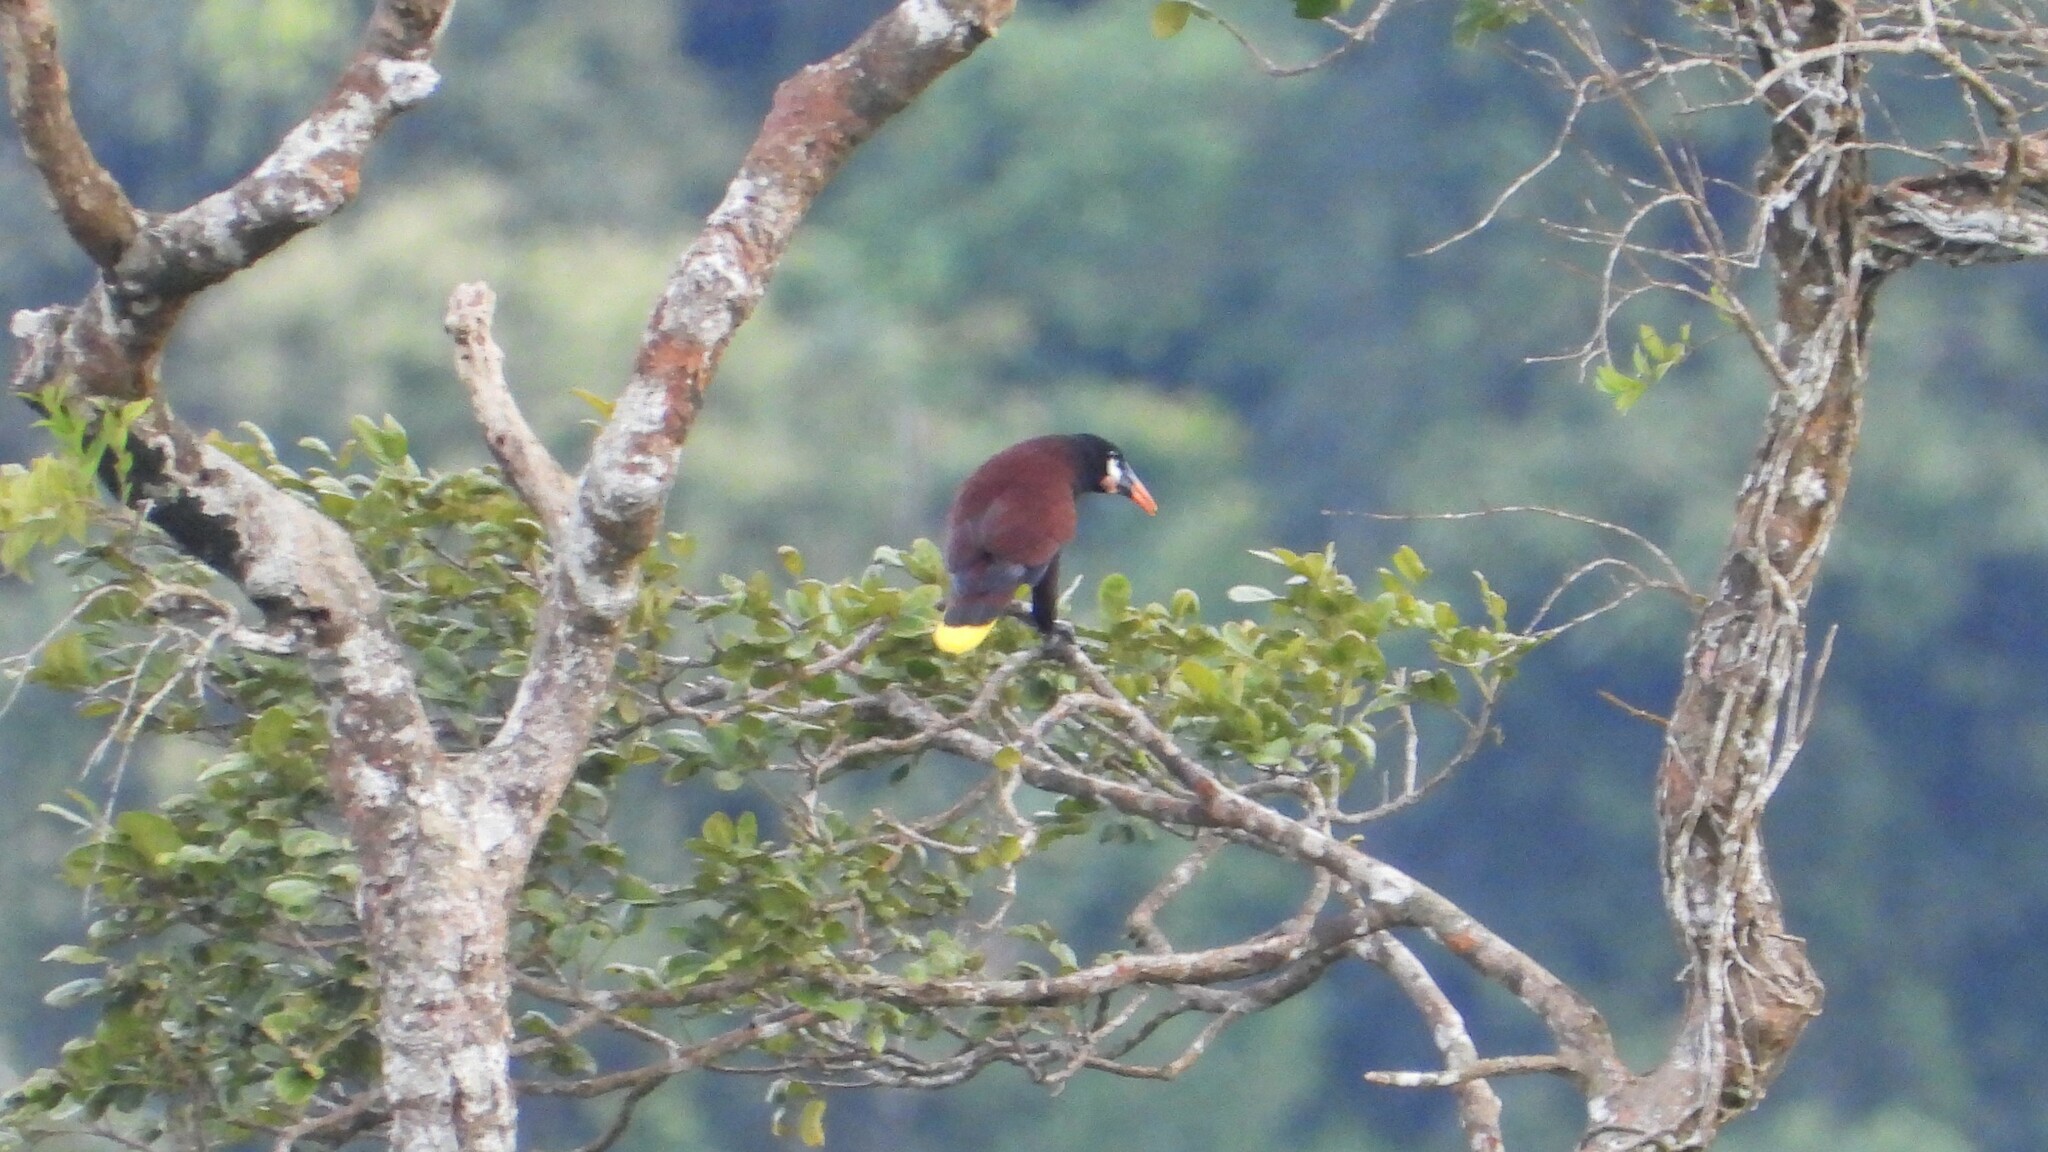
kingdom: Animalia
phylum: Chordata
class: Aves
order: Passeriformes
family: Icteridae
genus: Psarocolius
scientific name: Psarocolius montezuma
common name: Montezuma oropendola
